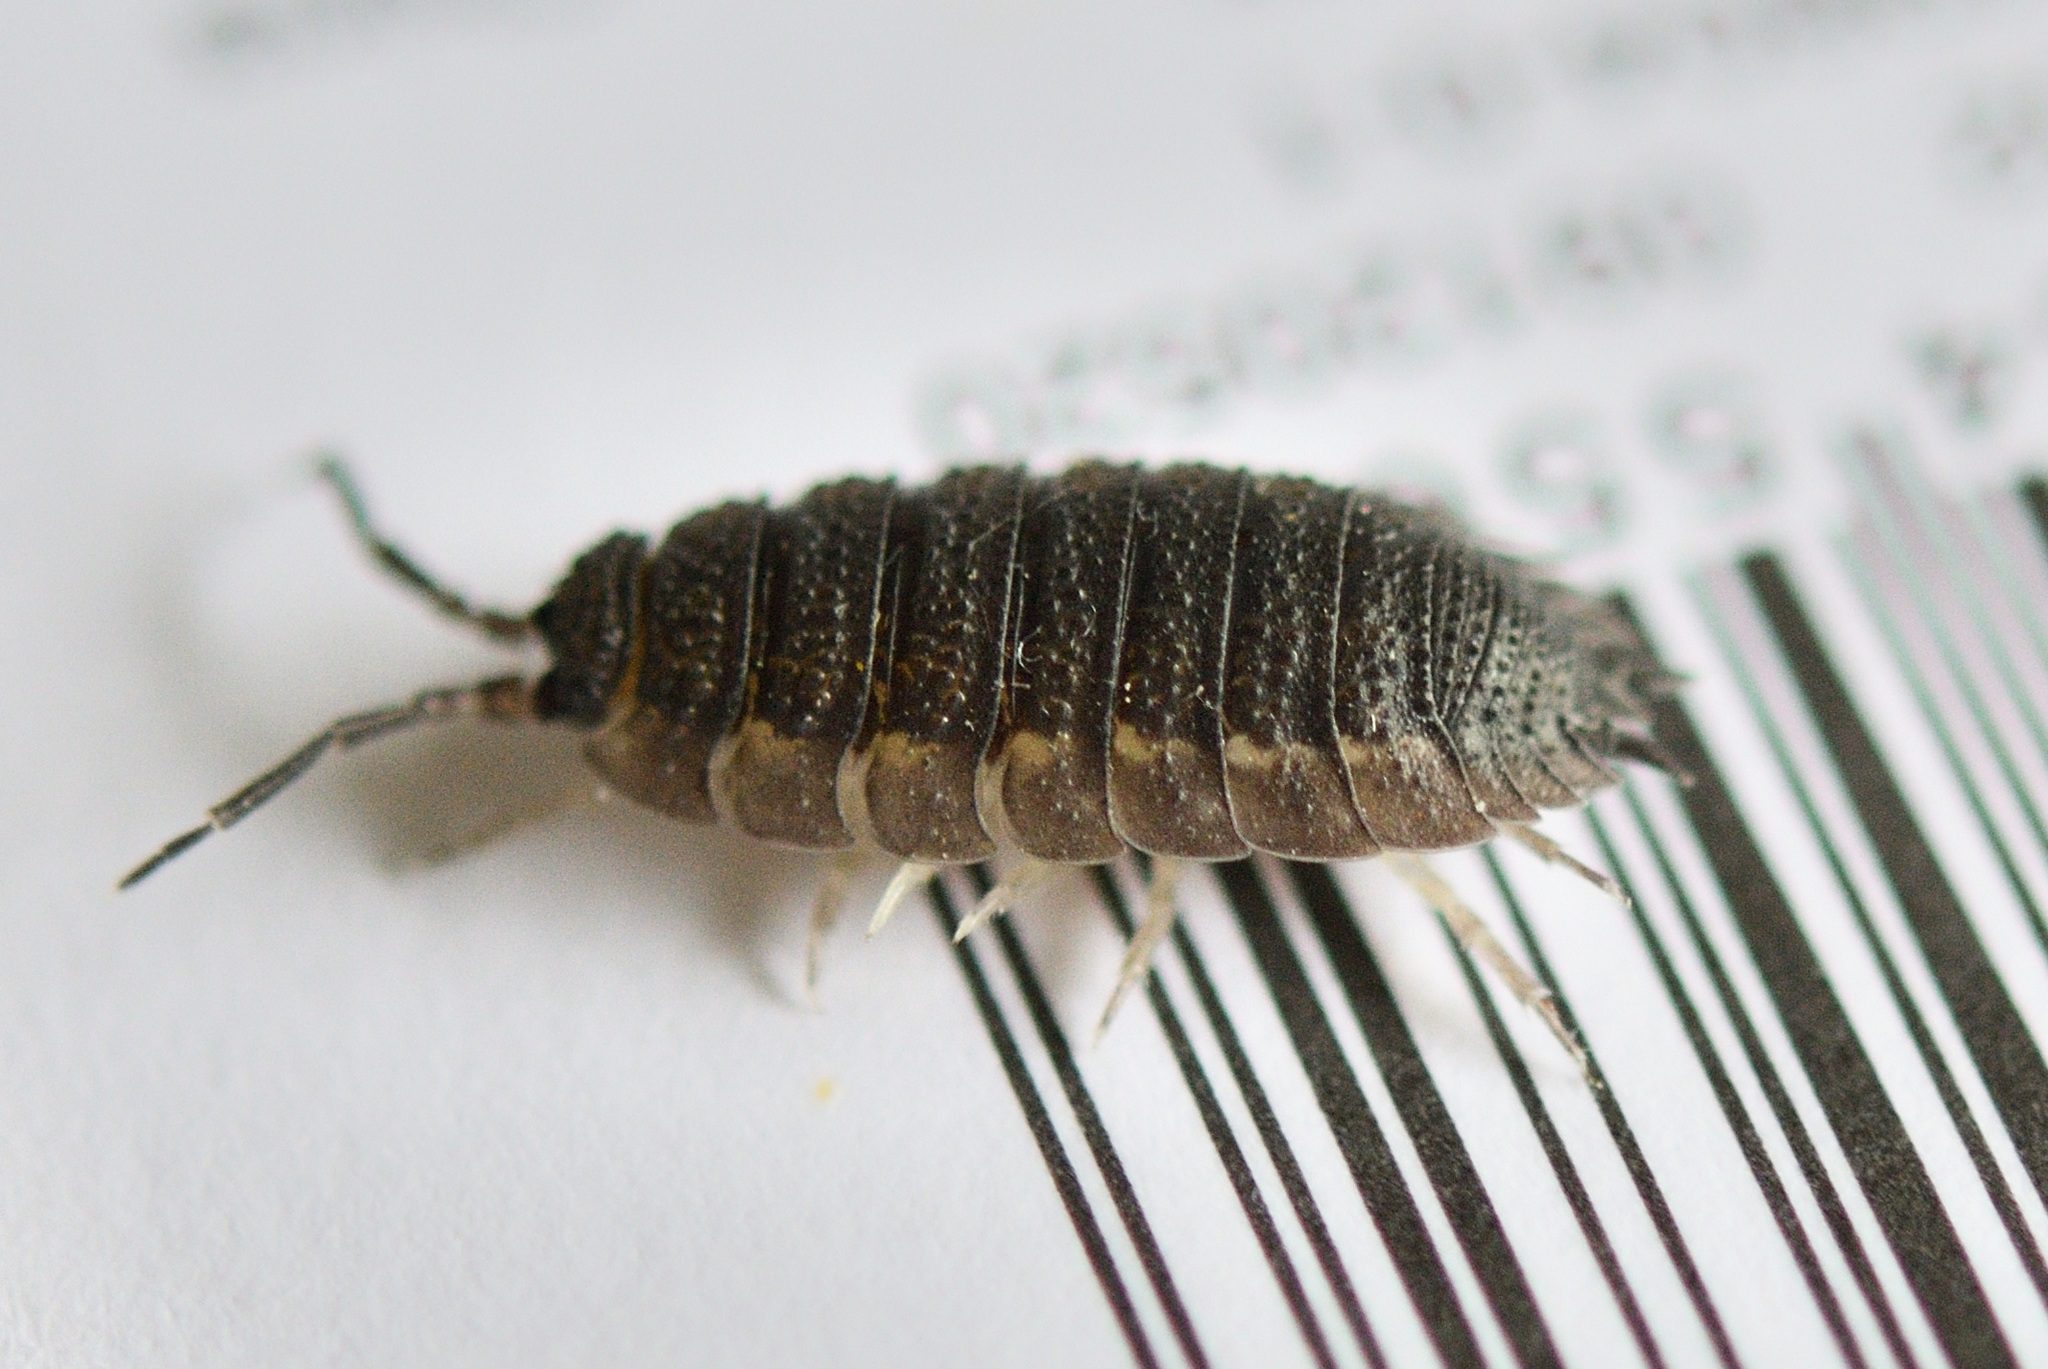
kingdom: Animalia
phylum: Arthropoda
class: Malacostraca
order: Isopoda
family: Porcellionidae
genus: Porcellio
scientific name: Porcellio scaber
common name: Common rough woodlouse
